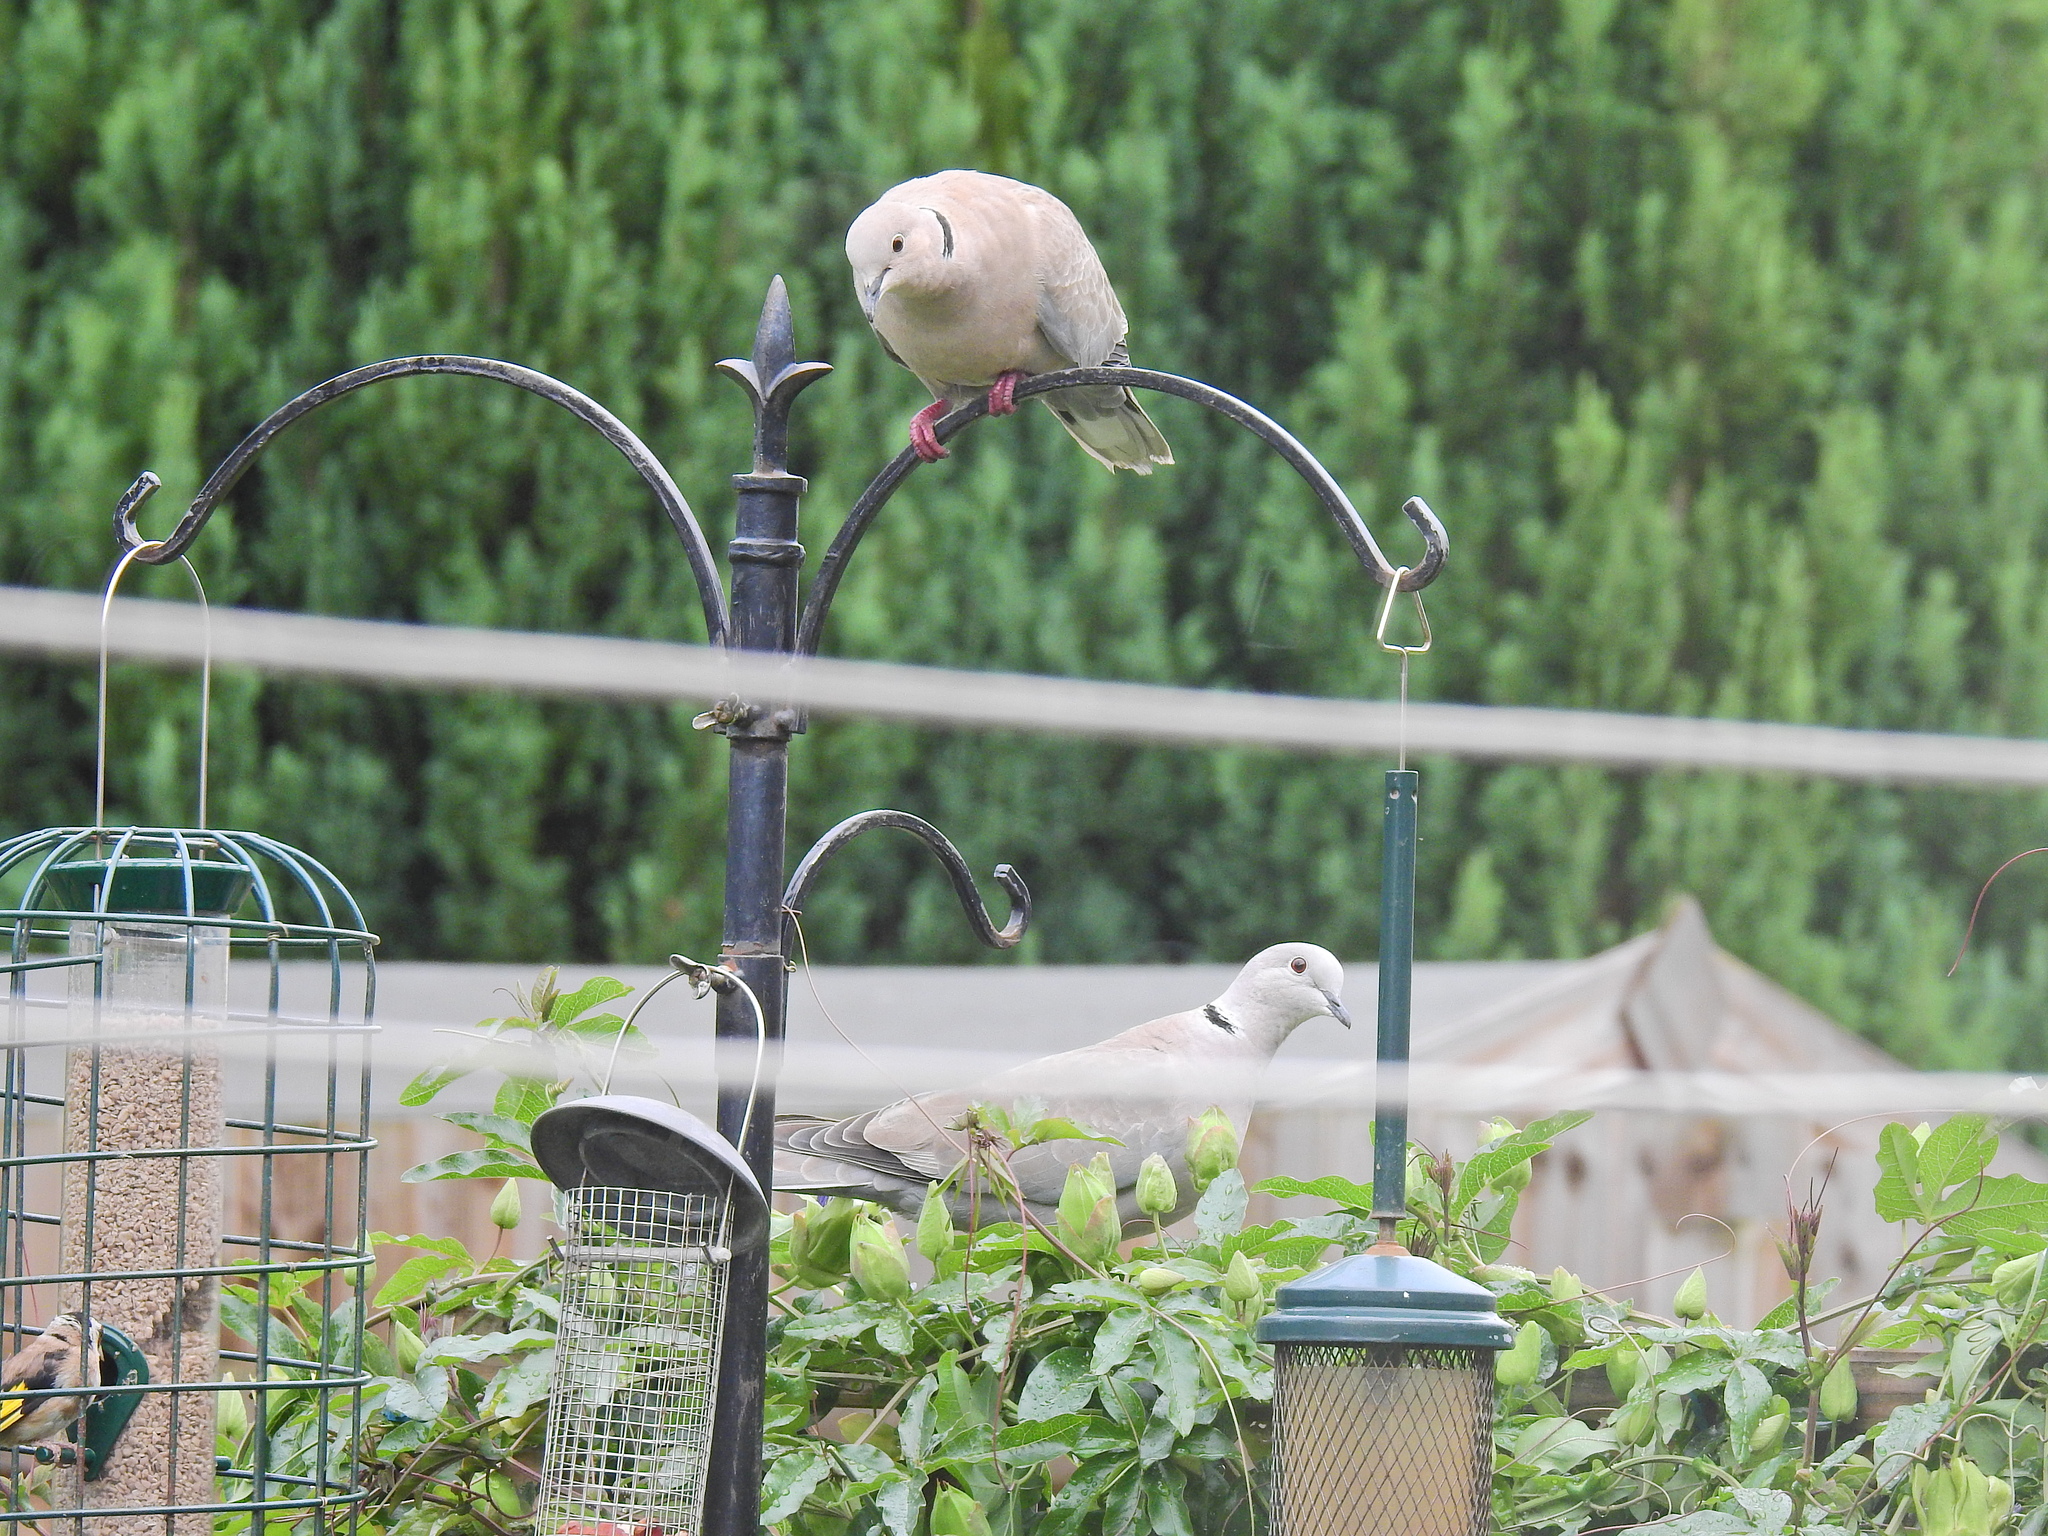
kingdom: Animalia
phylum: Chordata
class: Aves
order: Columbiformes
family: Columbidae
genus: Streptopelia
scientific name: Streptopelia decaocto
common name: Eurasian collared dove
